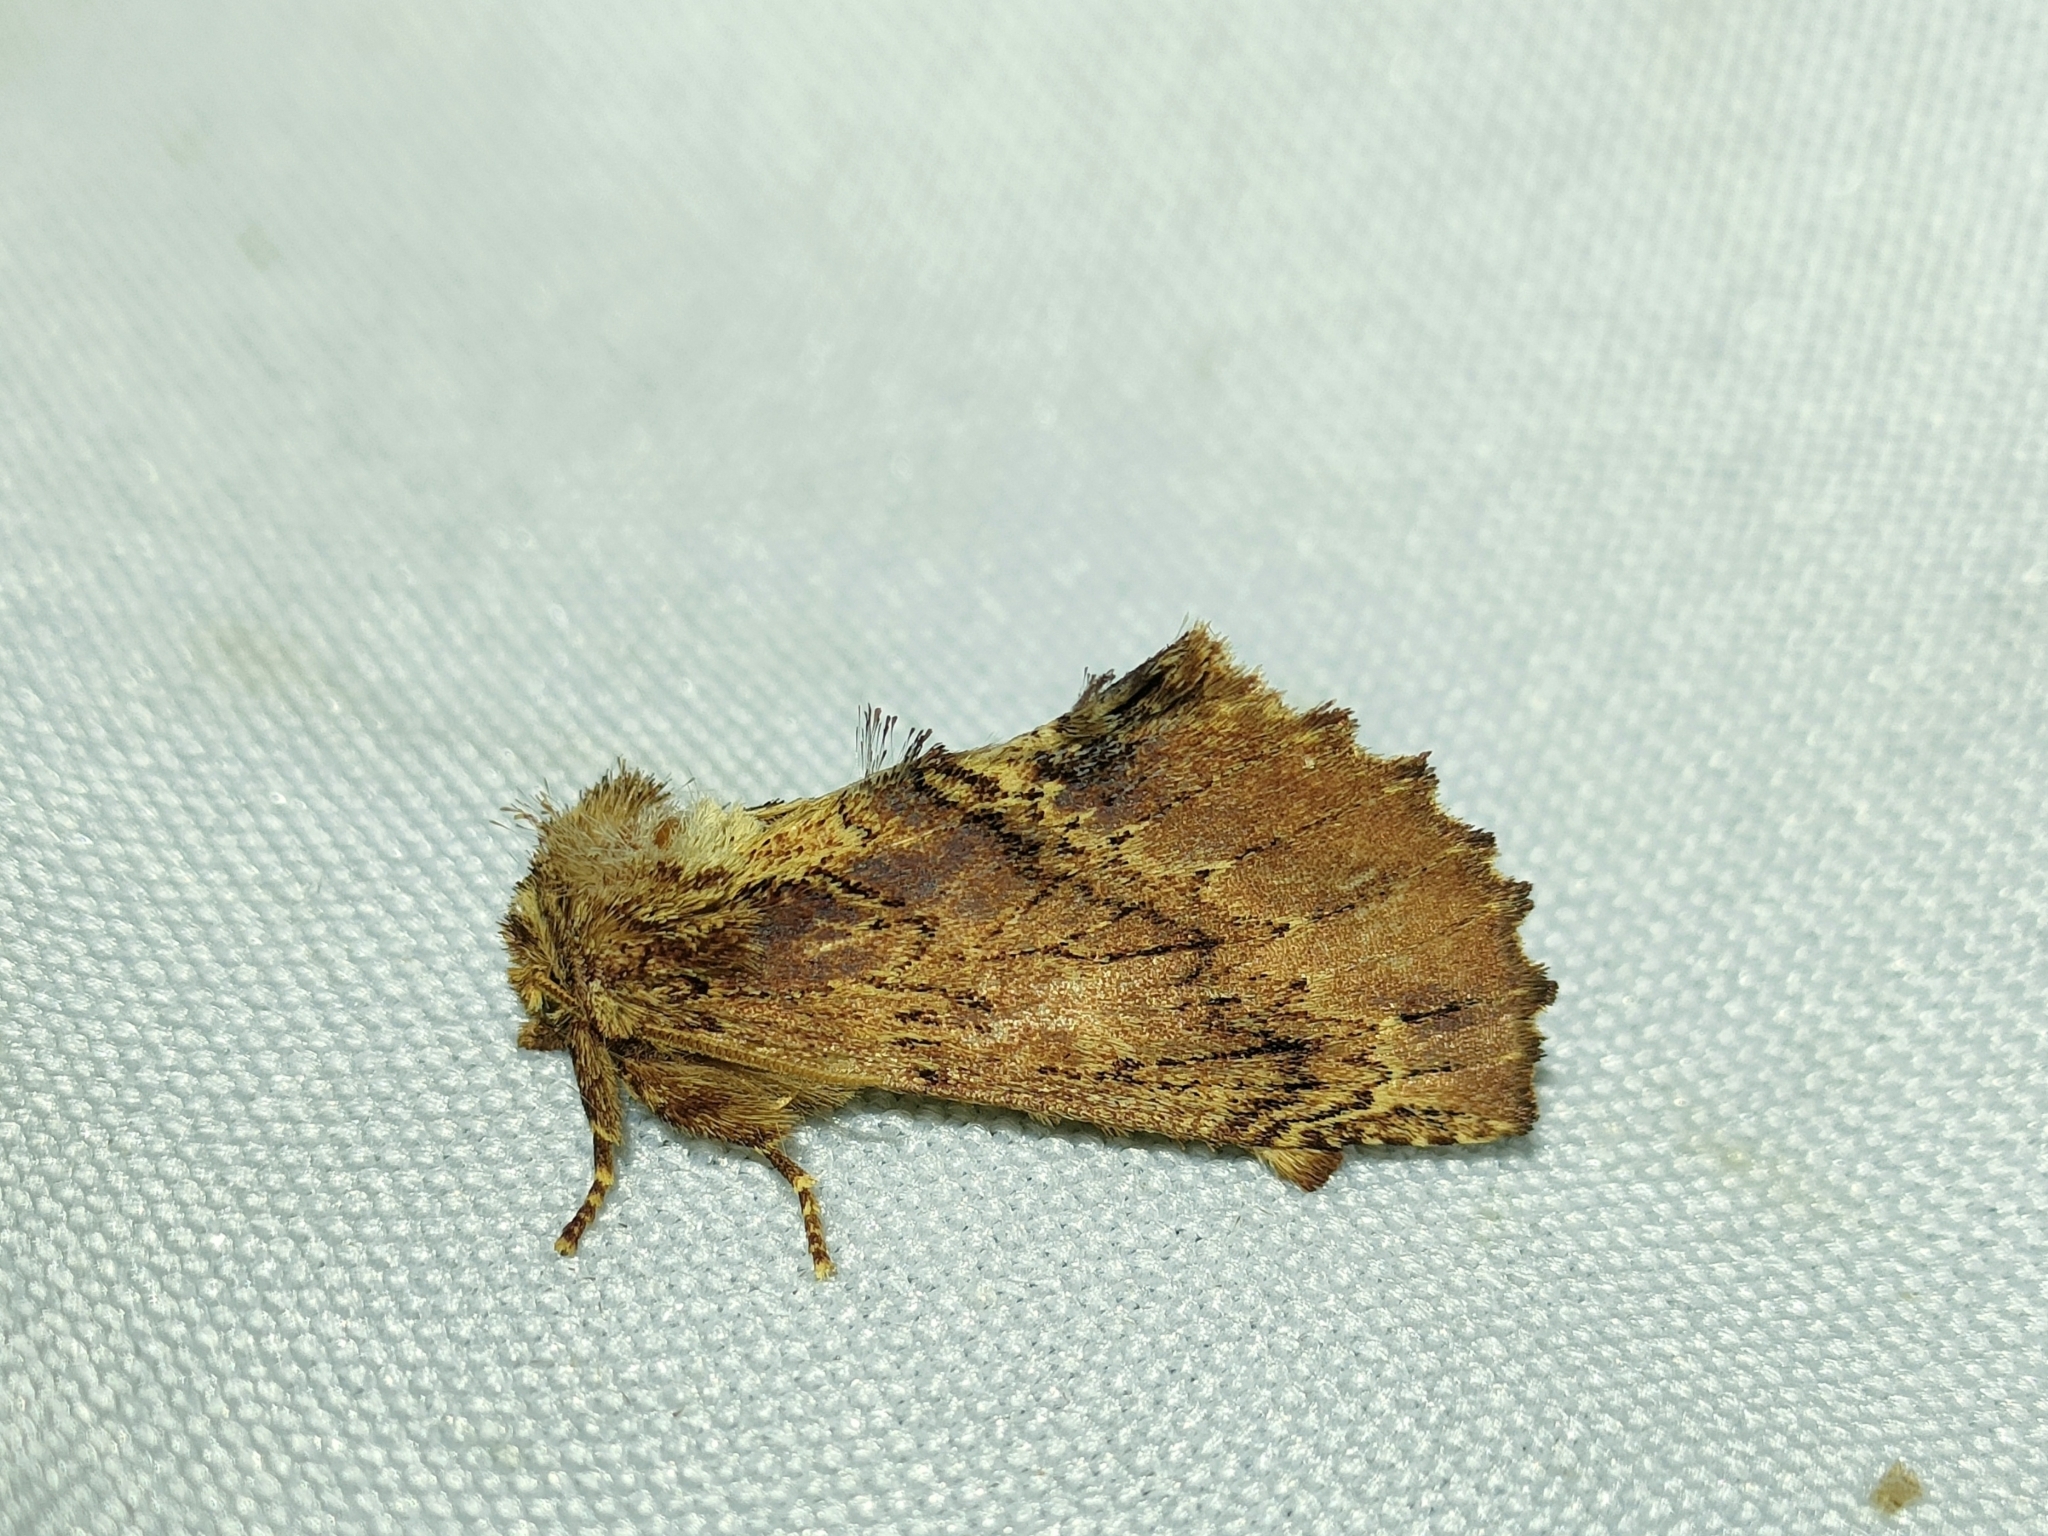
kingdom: Animalia
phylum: Arthropoda
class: Insecta
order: Lepidoptera
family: Notodontidae
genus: Ptilodon
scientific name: Ptilodon capucina
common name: Coxcomb prominent
